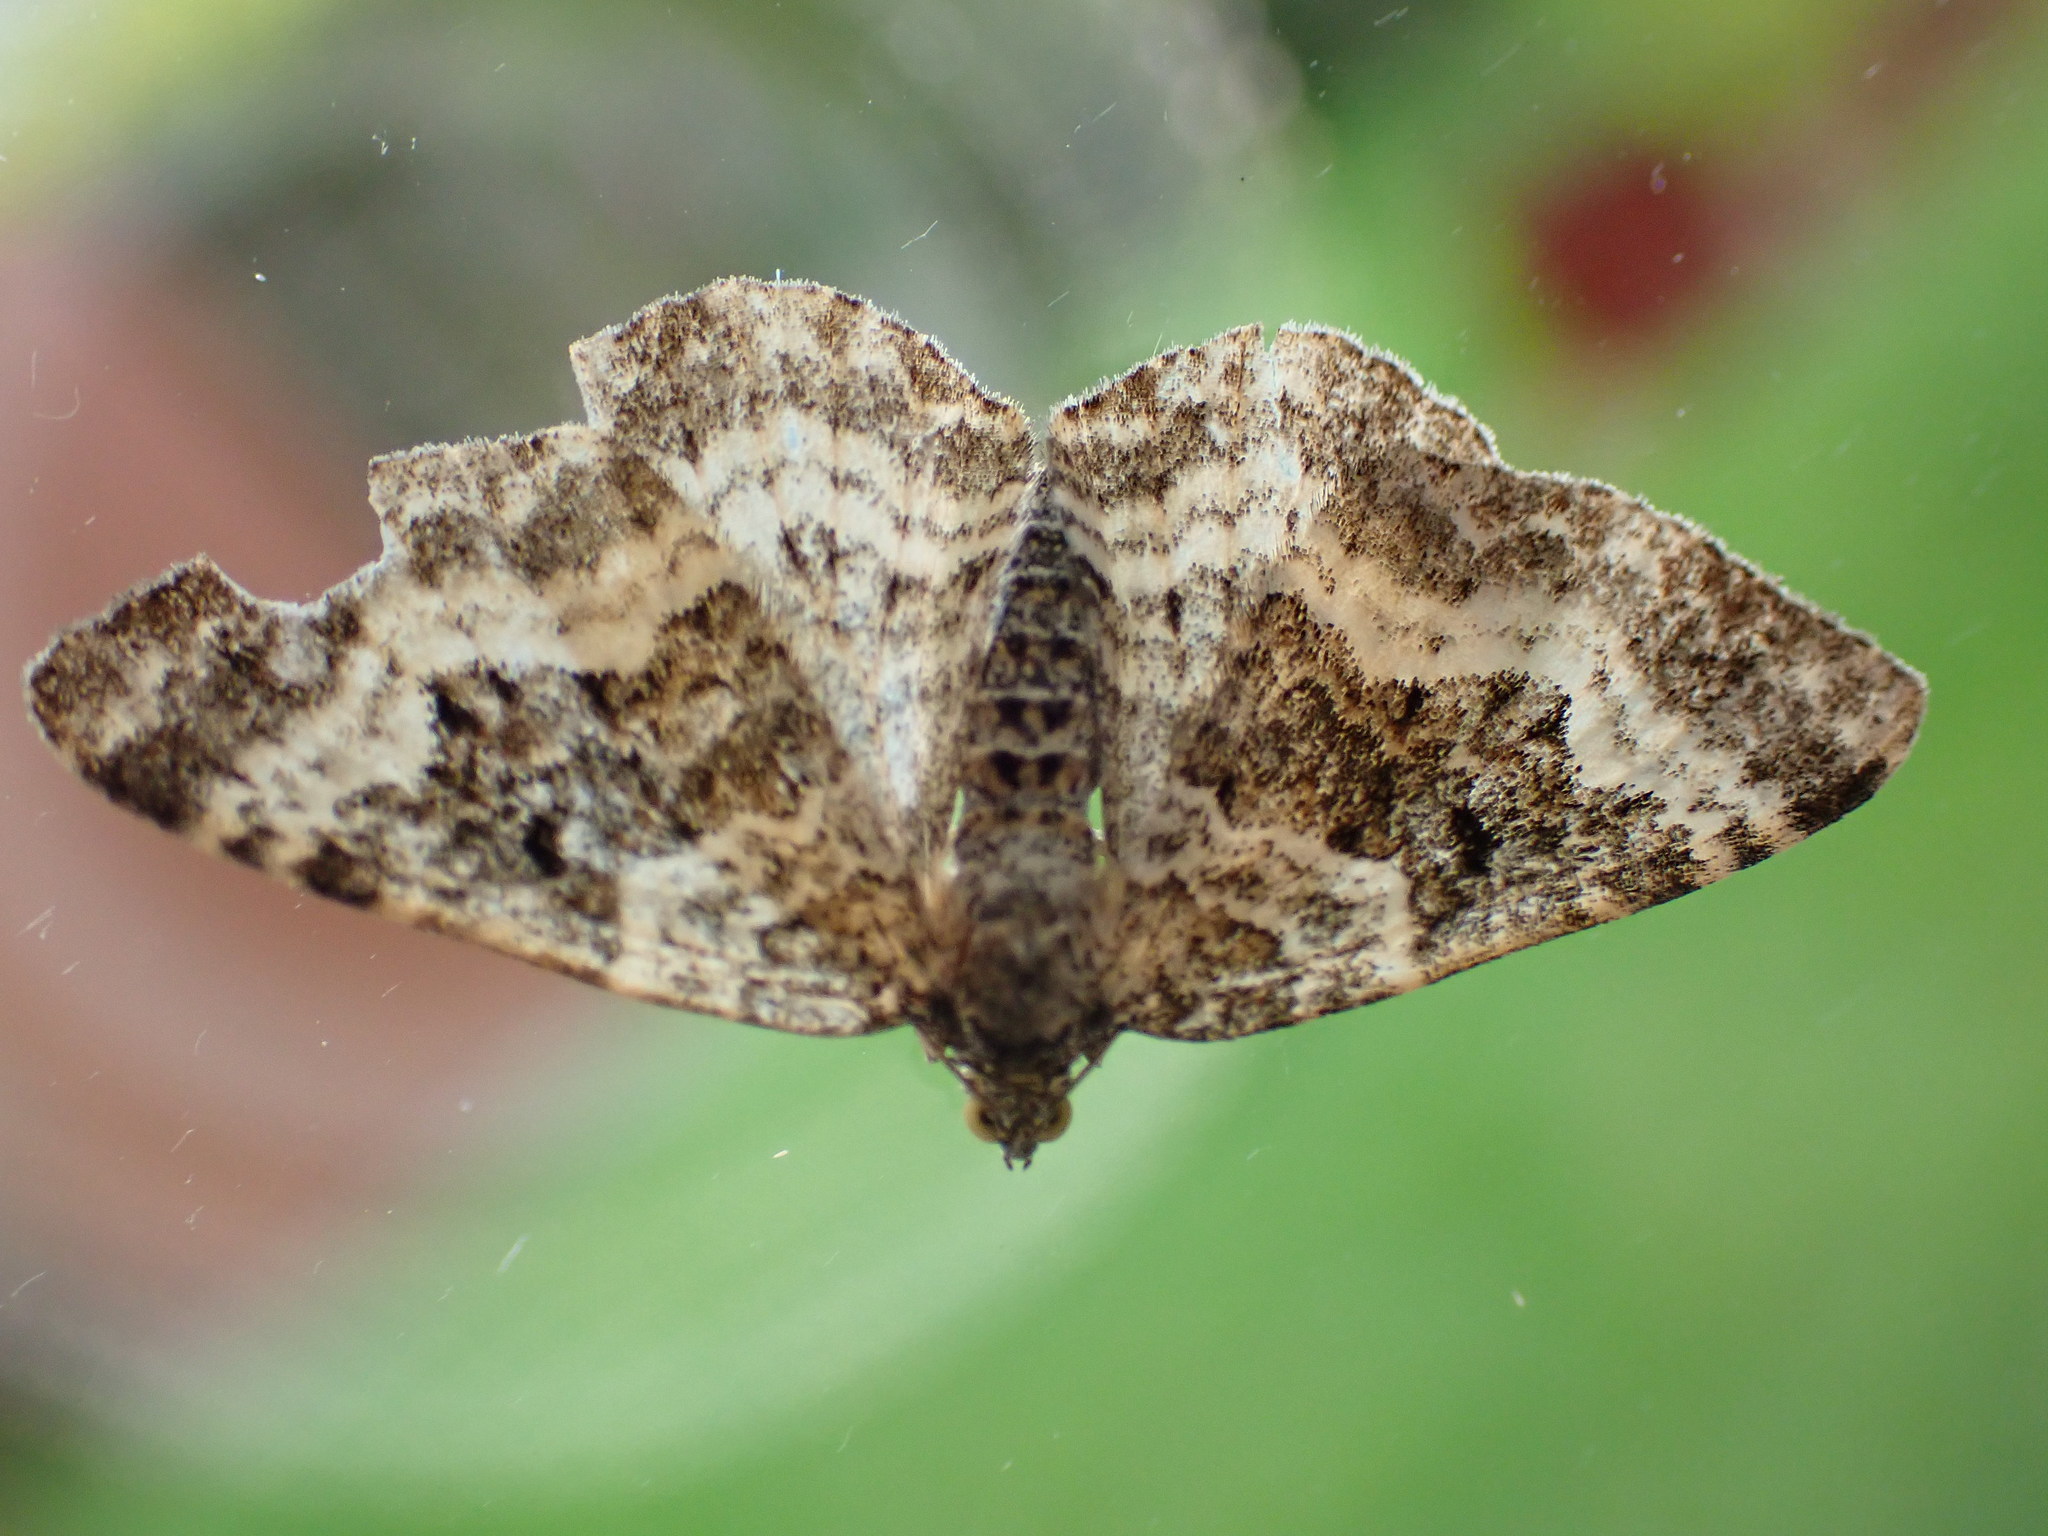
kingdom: Animalia
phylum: Arthropoda
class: Insecta
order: Lepidoptera
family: Geometridae
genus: Epirrhoe
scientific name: Epirrhoe alternata
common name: Common carpet
